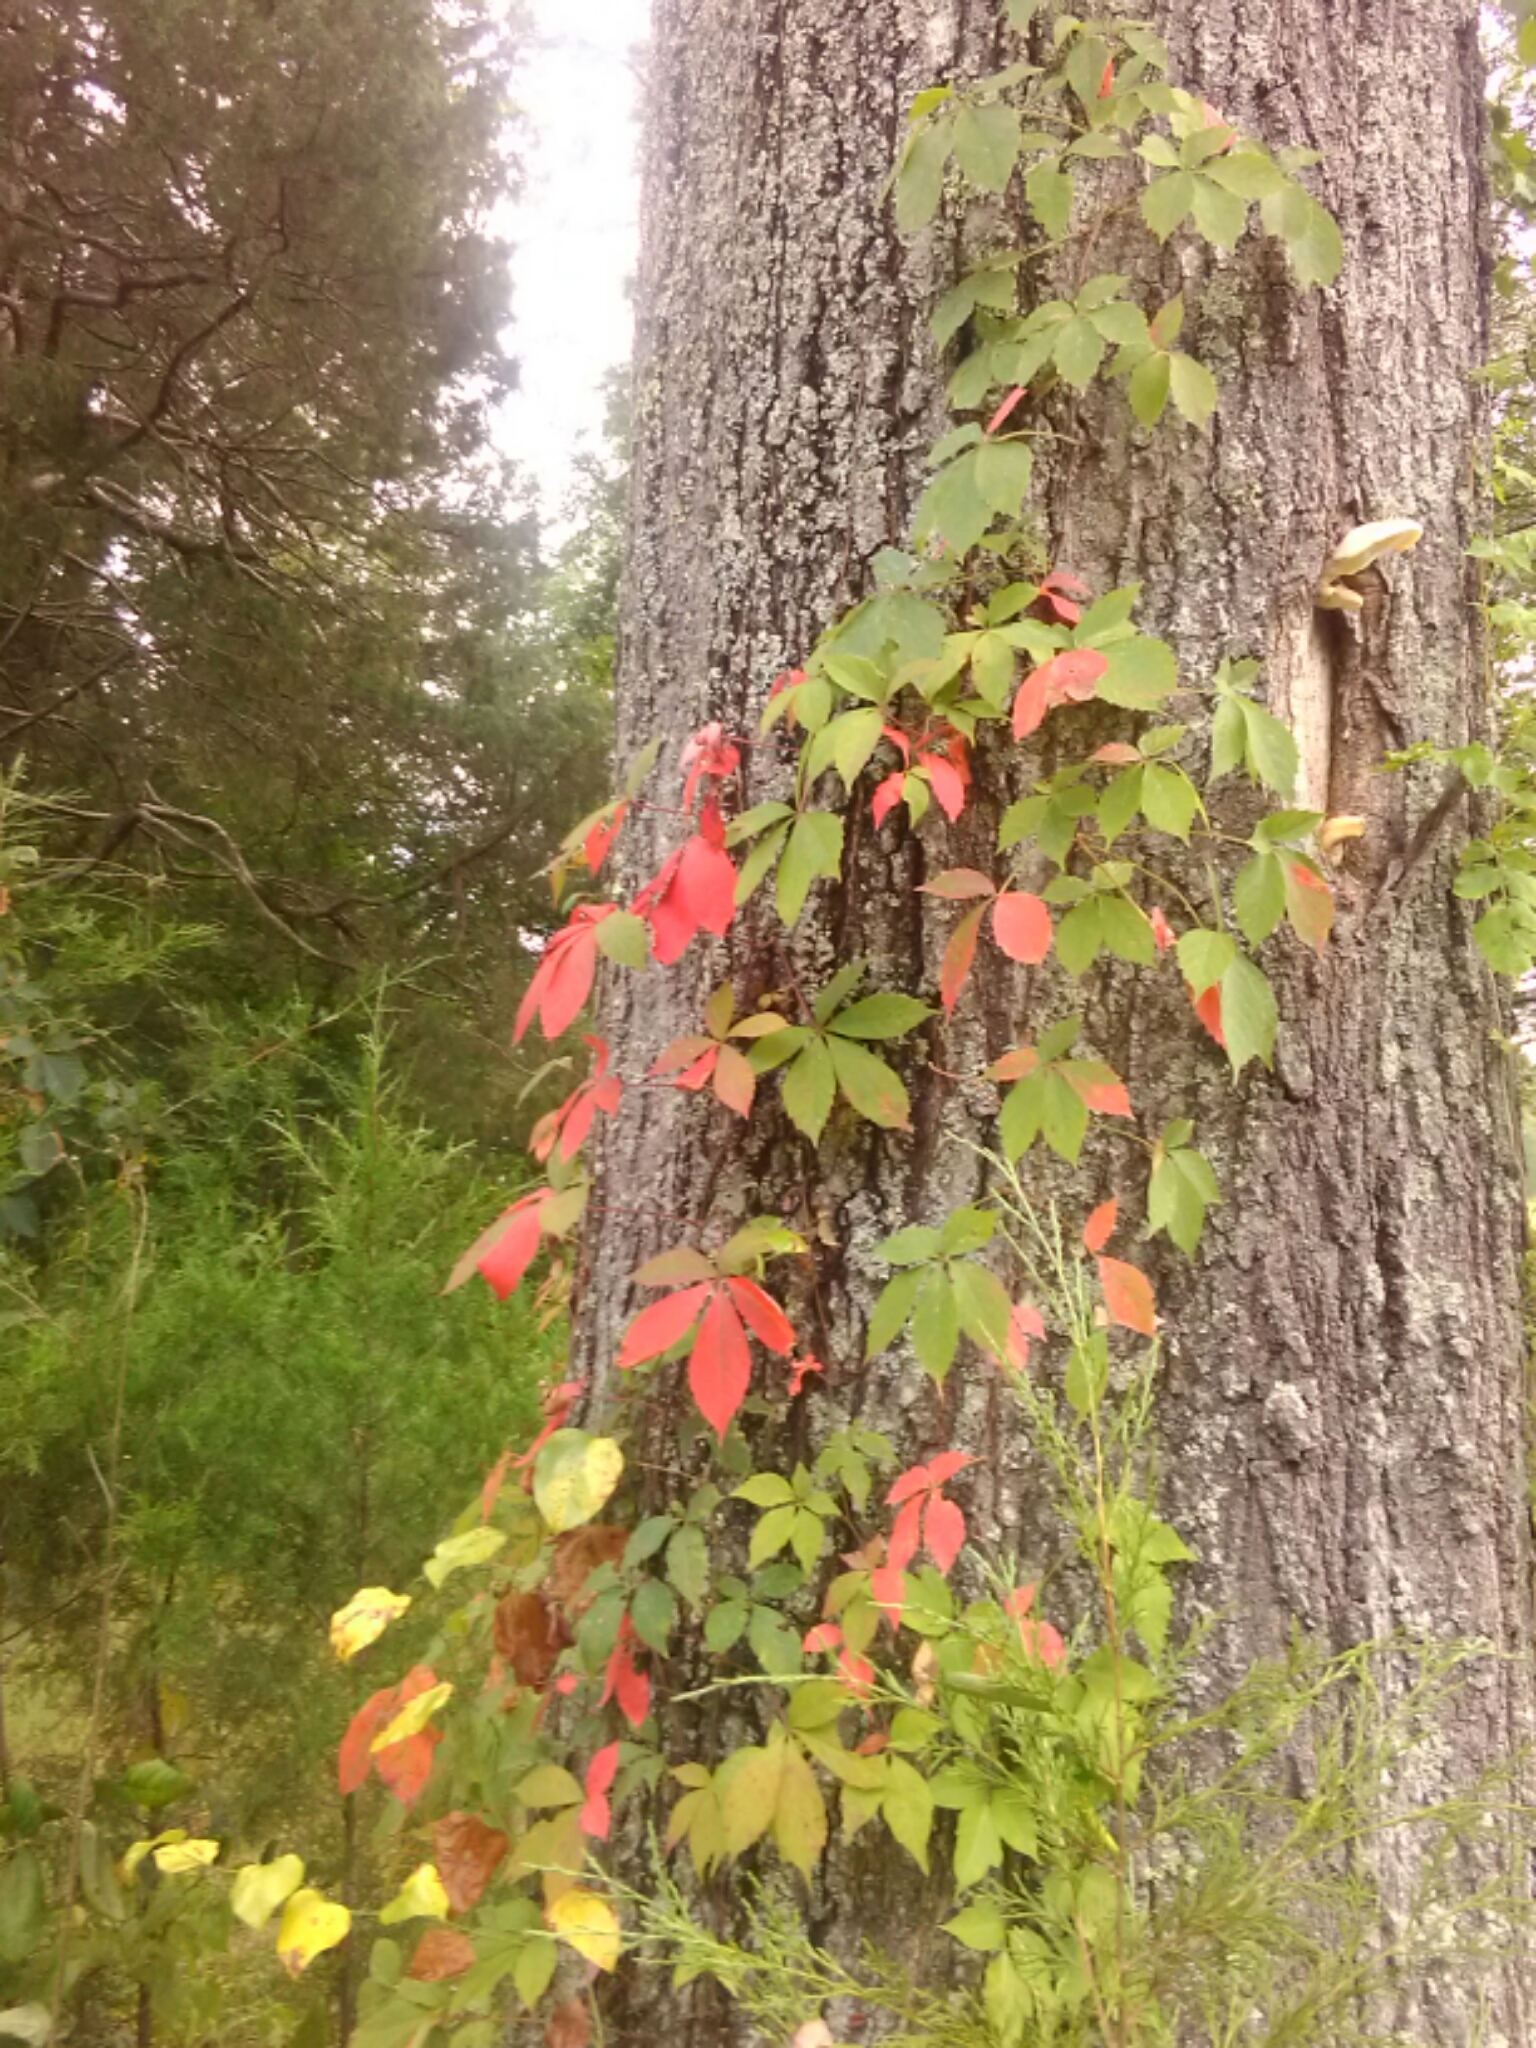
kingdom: Plantae
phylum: Tracheophyta
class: Magnoliopsida
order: Vitales
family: Vitaceae
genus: Parthenocissus
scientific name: Parthenocissus quinquefolia
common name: Virginia-creeper
